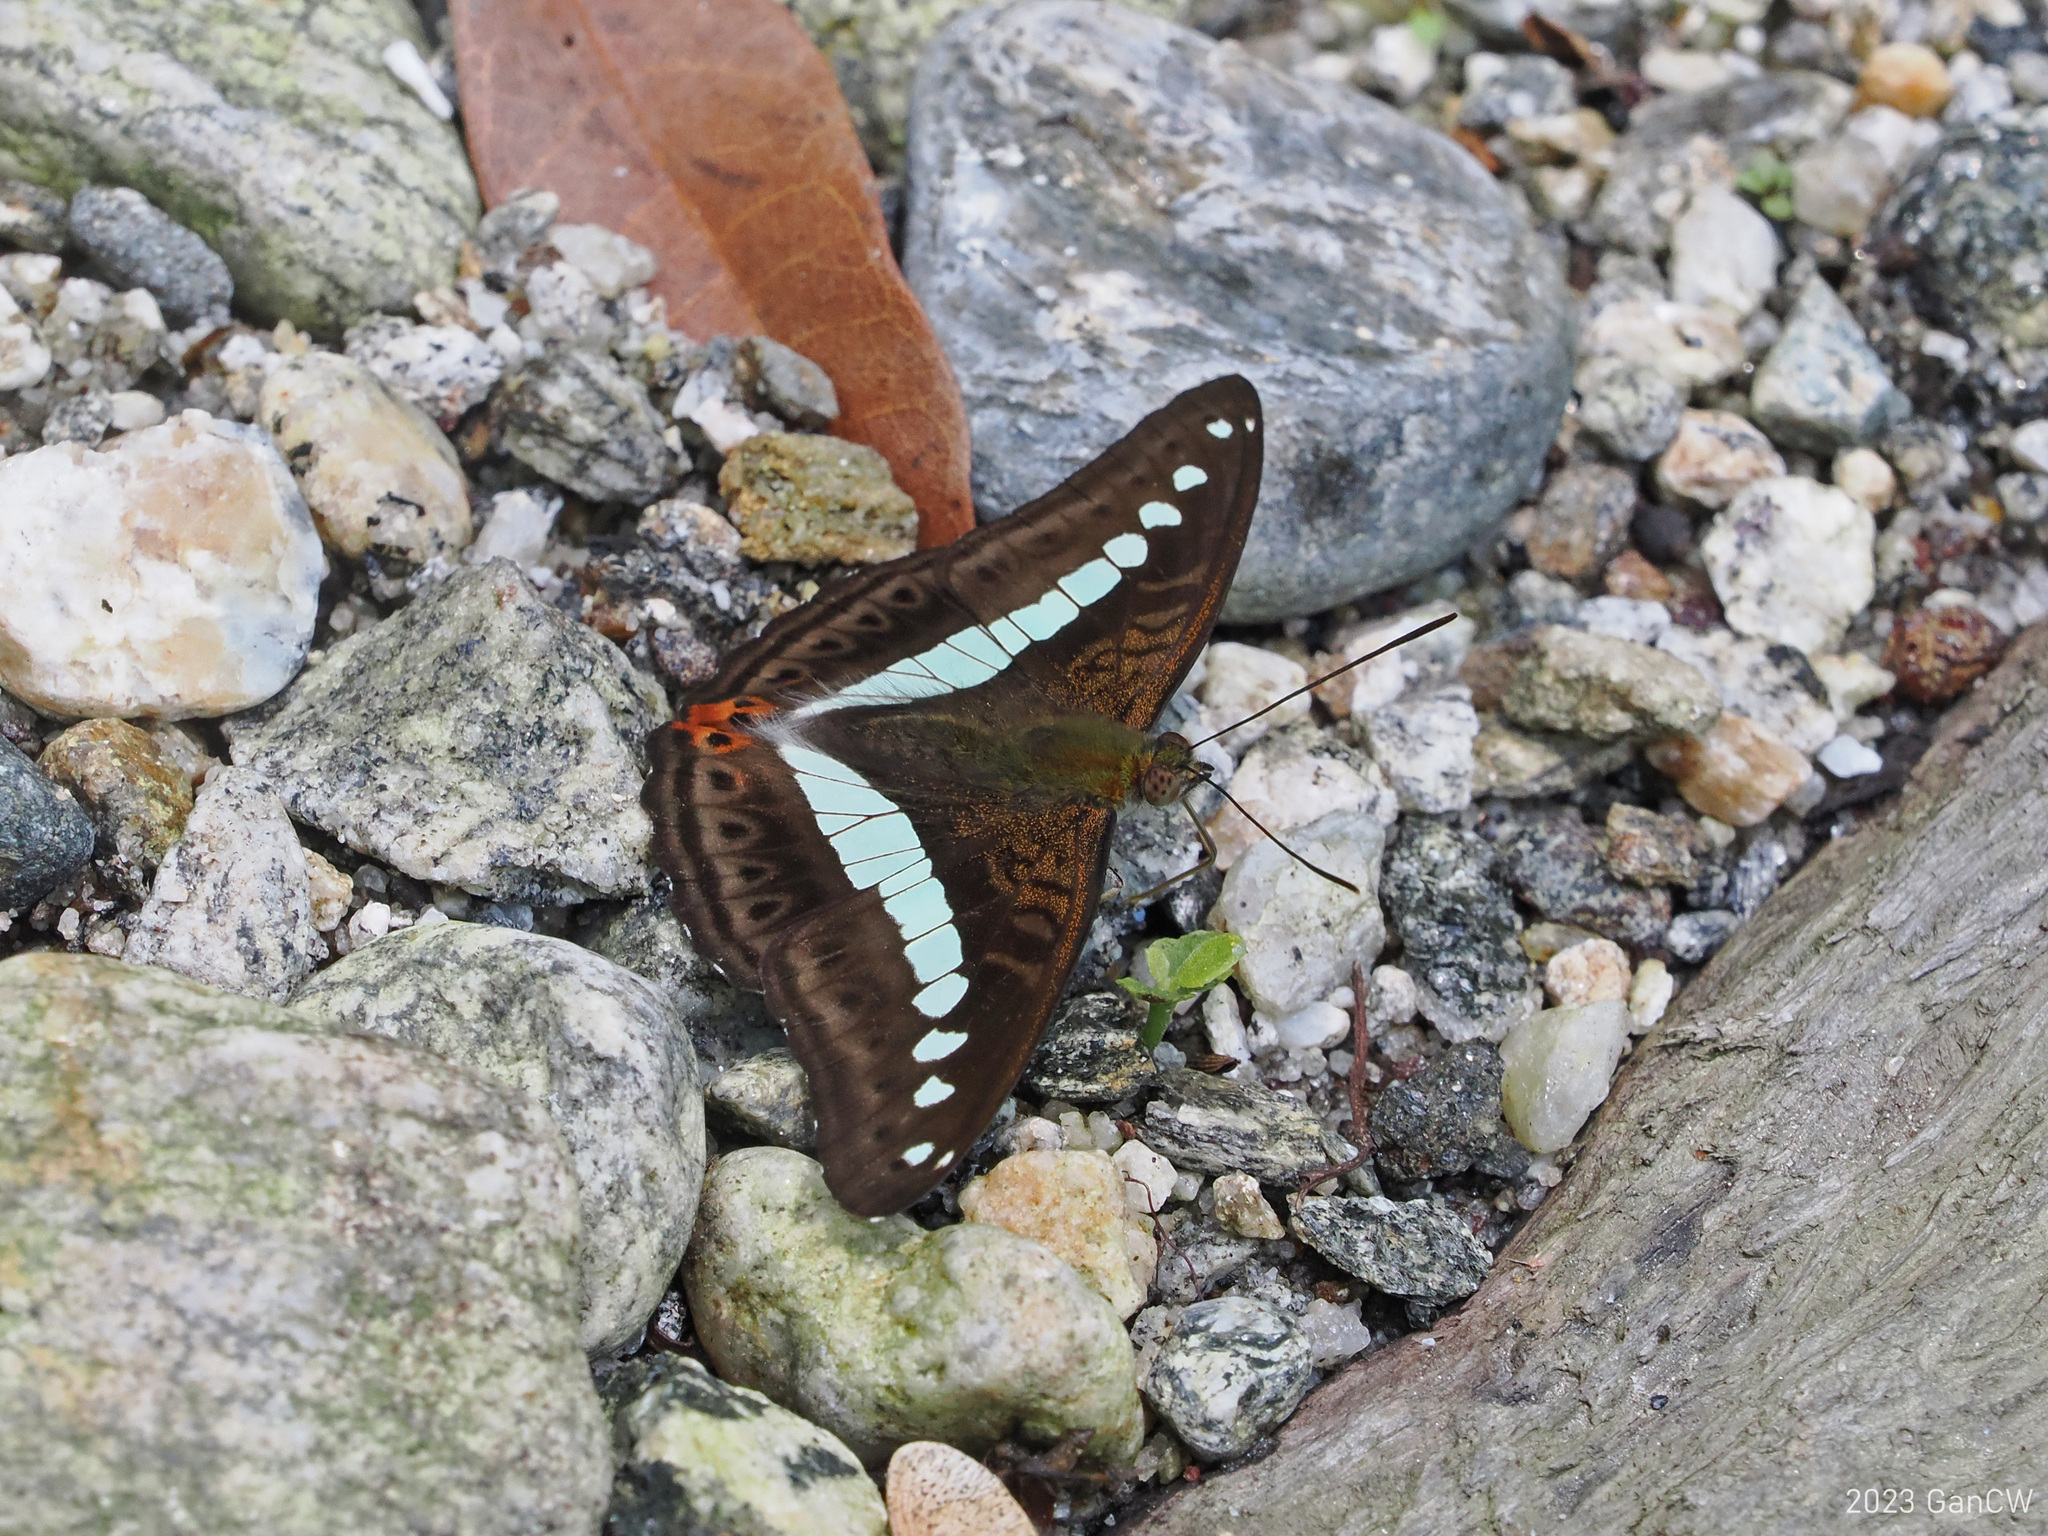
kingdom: Animalia
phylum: Arthropoda
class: Insecta
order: Lepidoptera
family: Nymphalidae
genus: Limenitis
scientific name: Limenitis Sumalia daraxa
